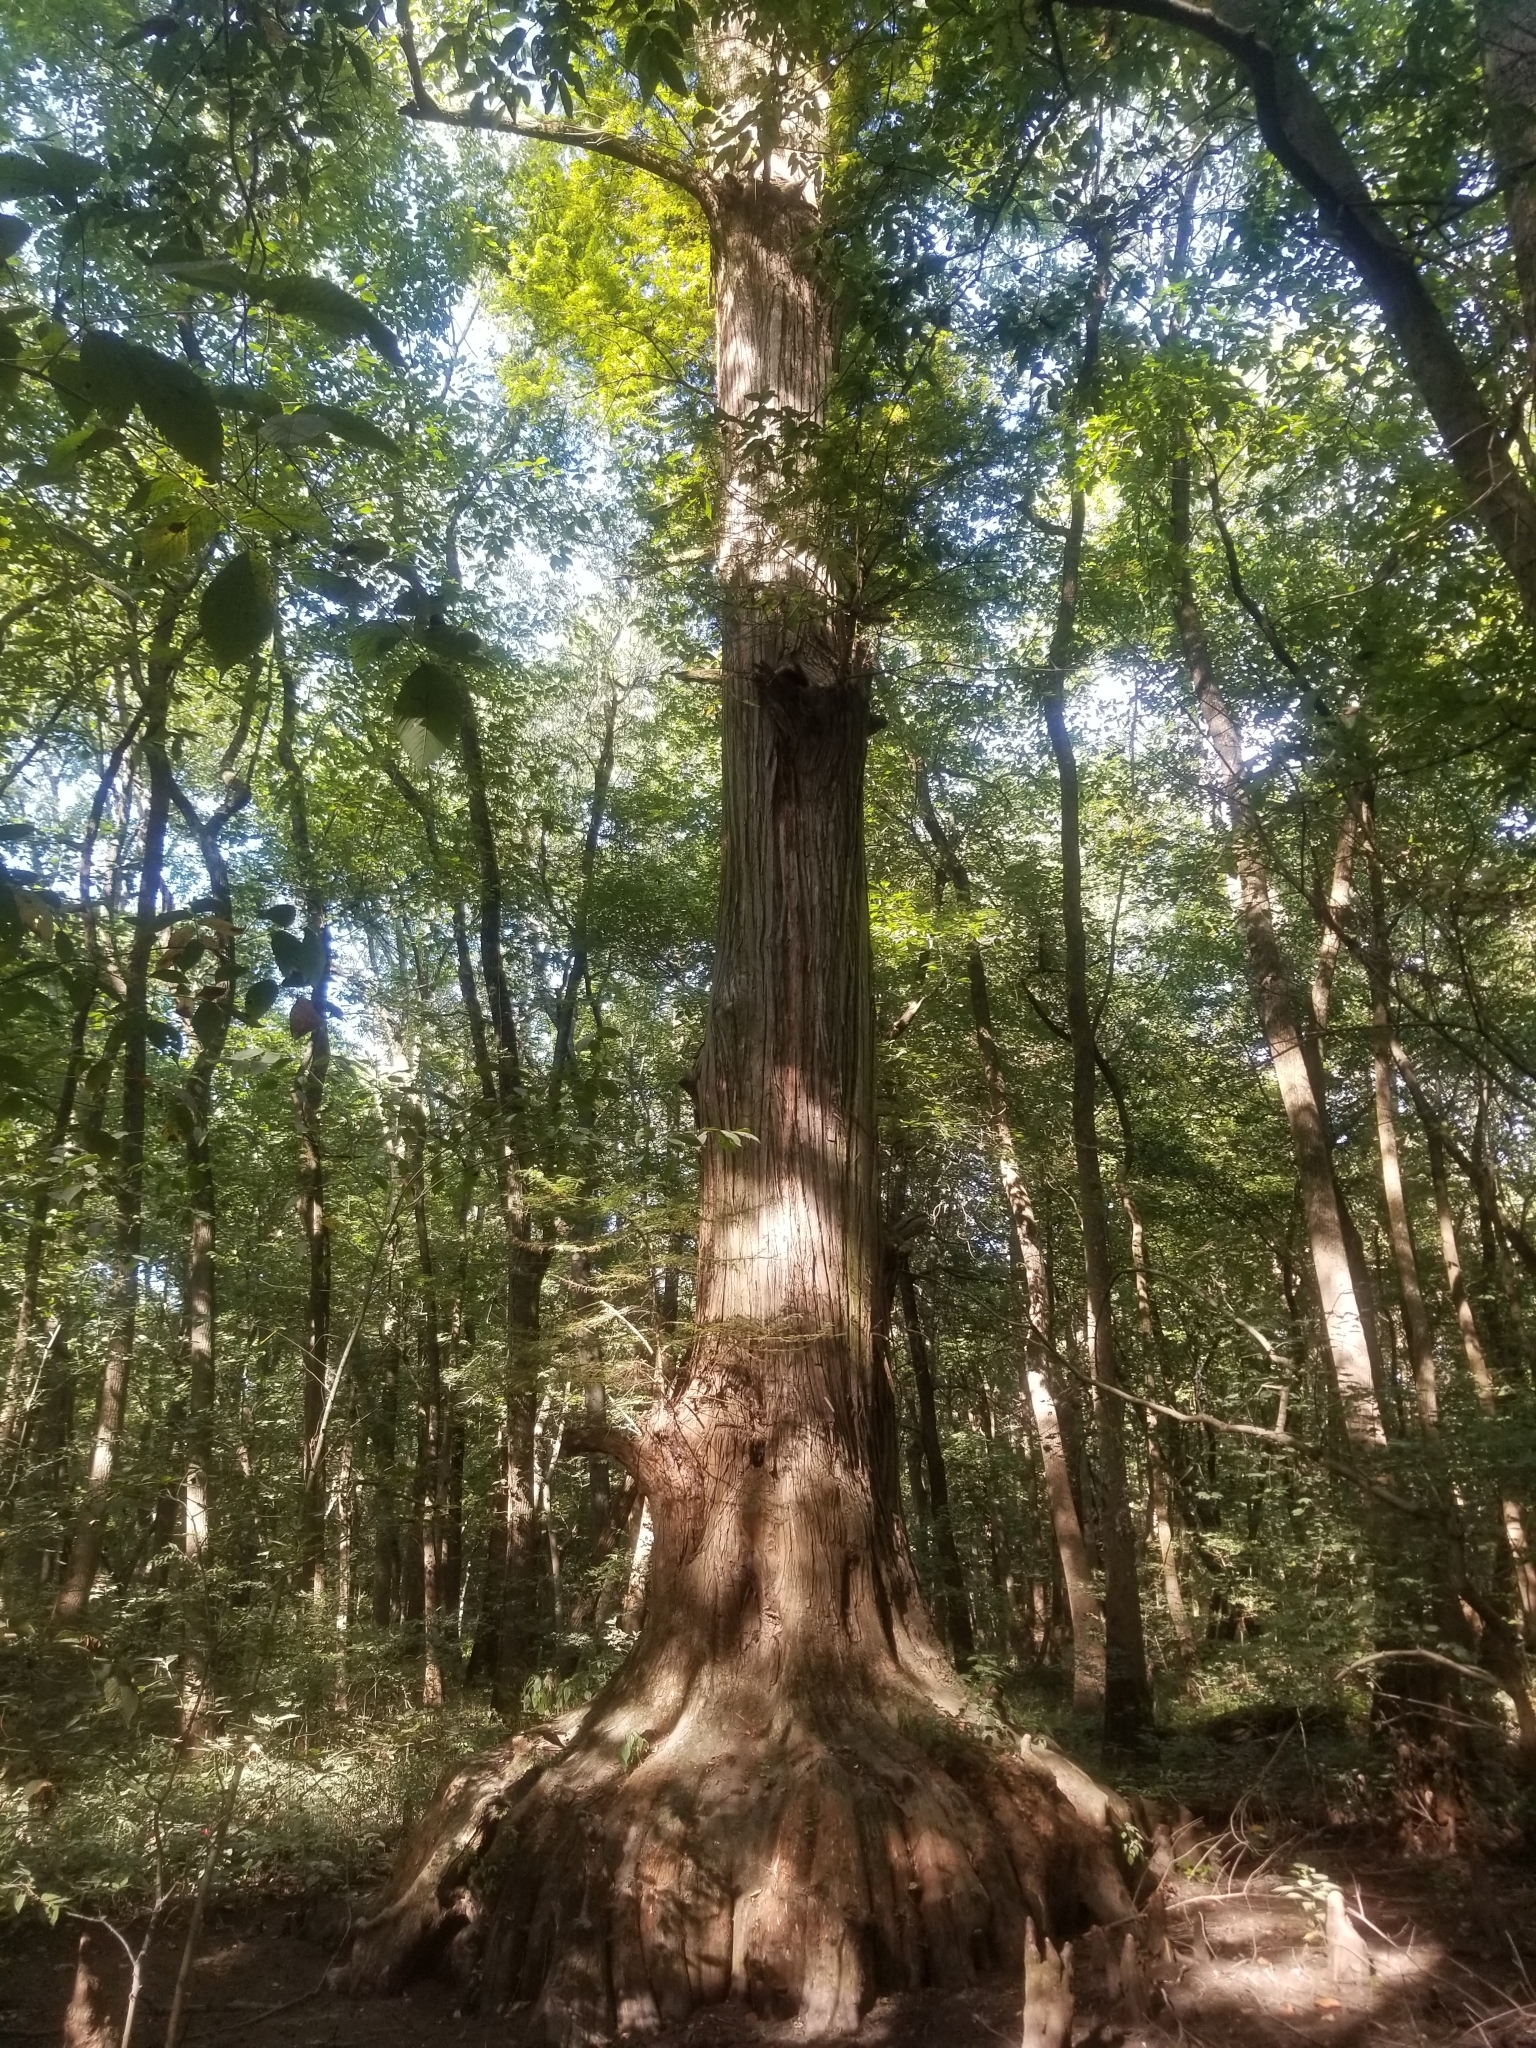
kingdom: Plantae
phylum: Tracheophyta
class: Pinopsida
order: Pinales
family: Cupressaceae
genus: Taxodium
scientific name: Taxodium distichum
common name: Bald cypress
